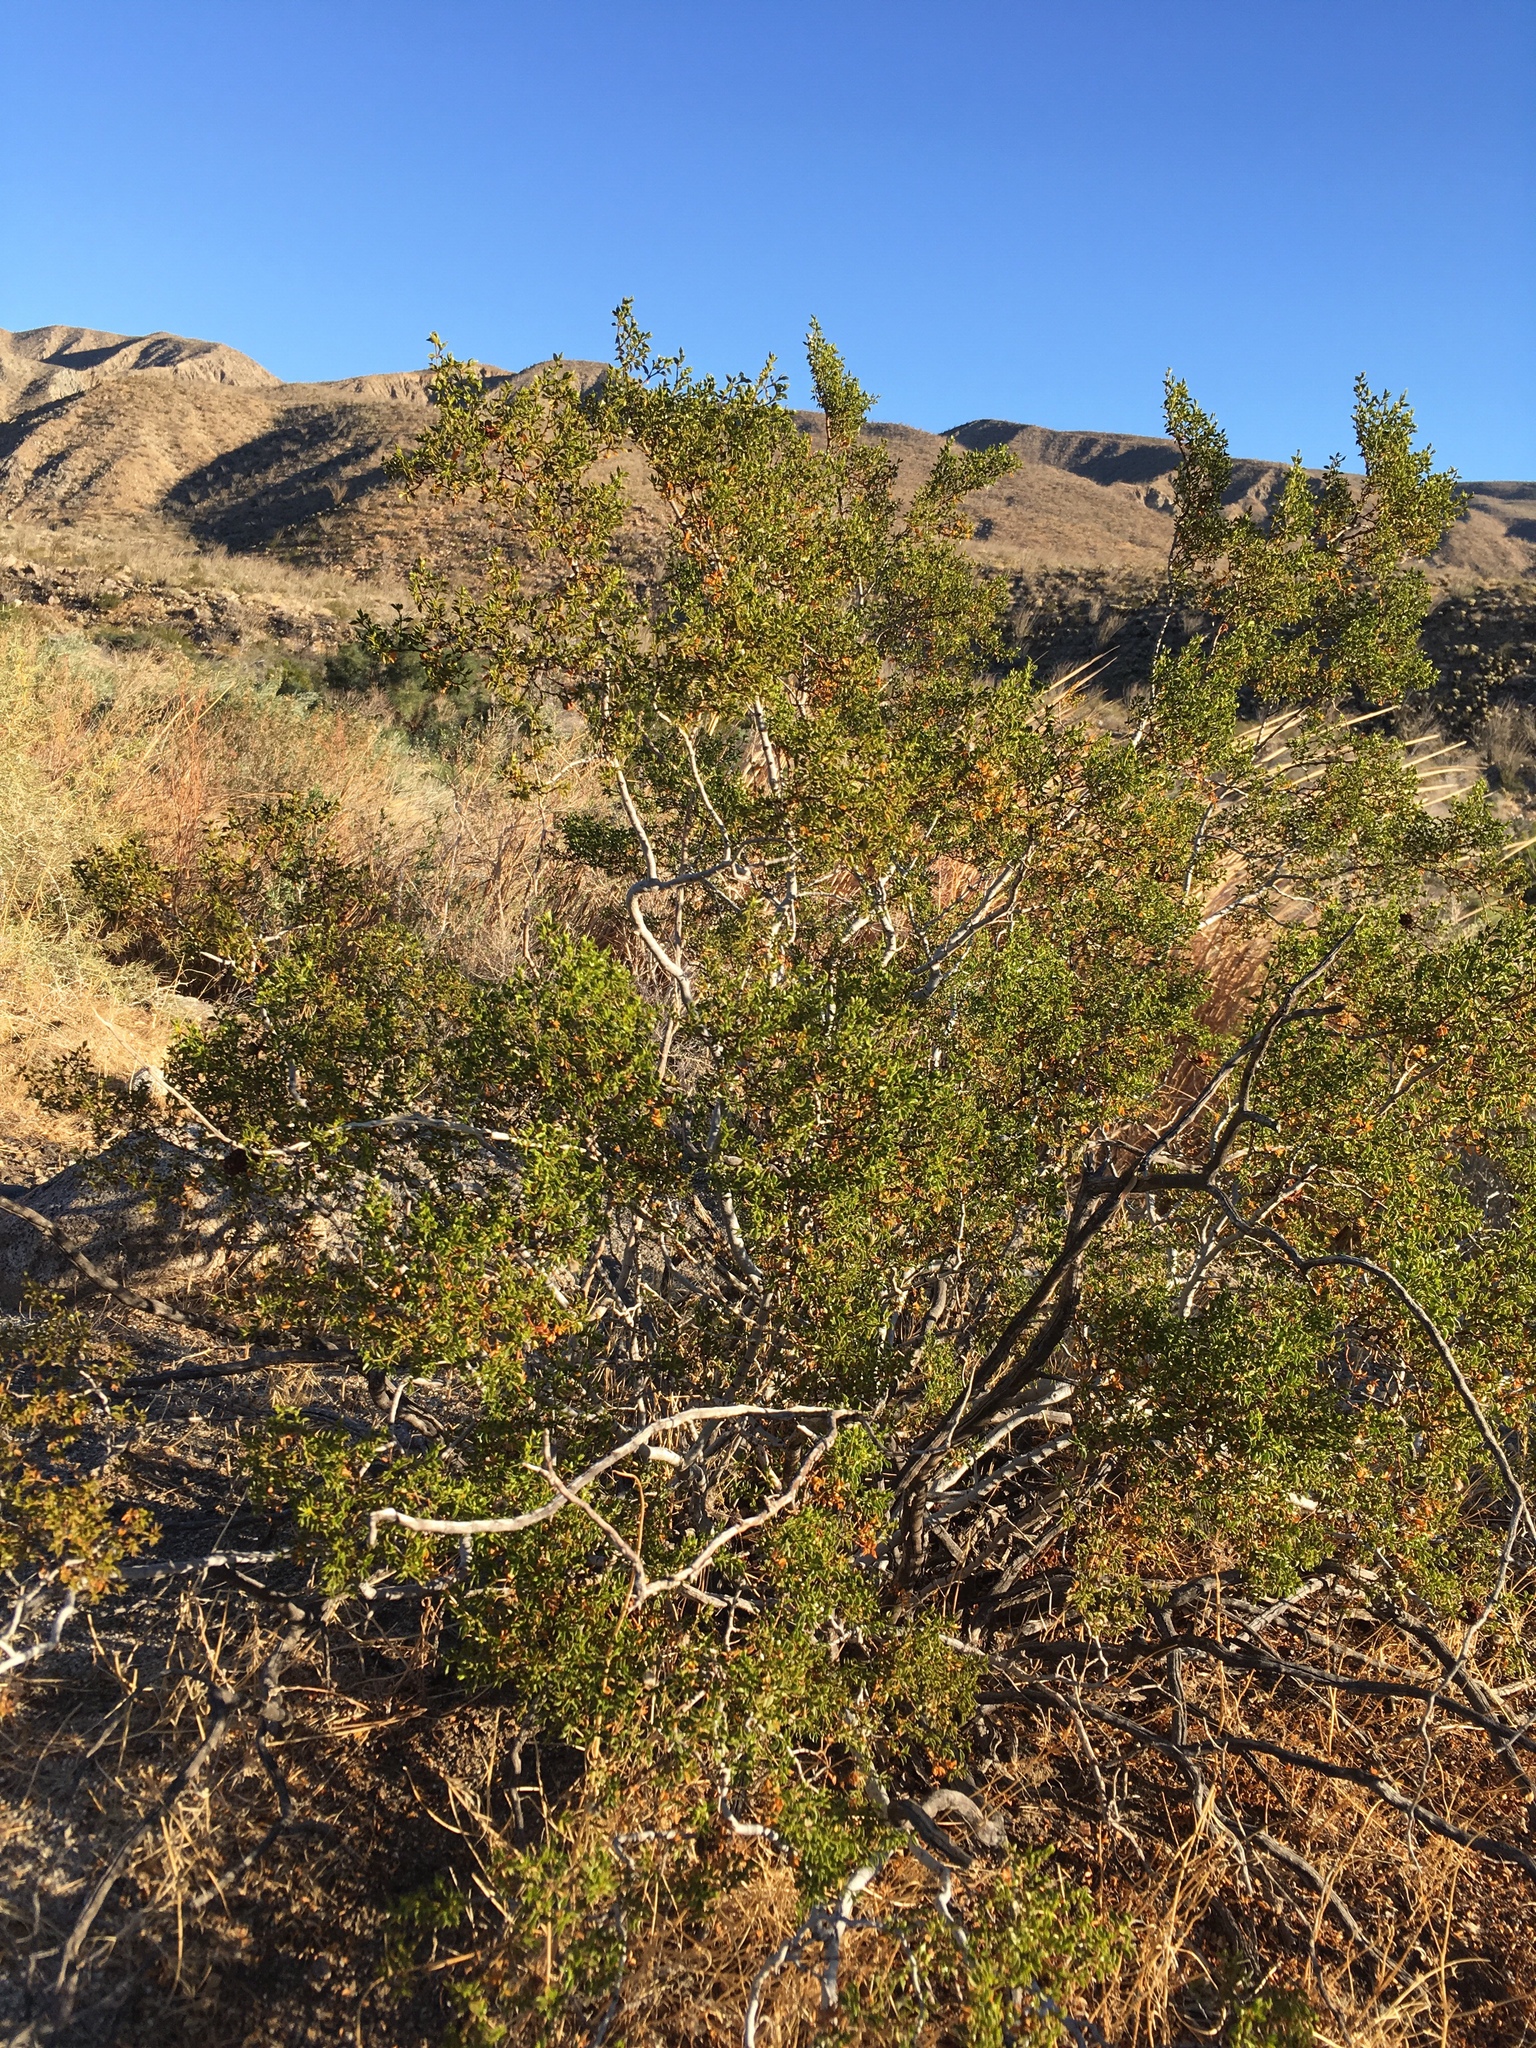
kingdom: Animalia
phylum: Arthropoda
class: Insecta
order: Diptera
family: Cecidomyiidae
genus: Asphondylia
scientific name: Asphondylia auripila
